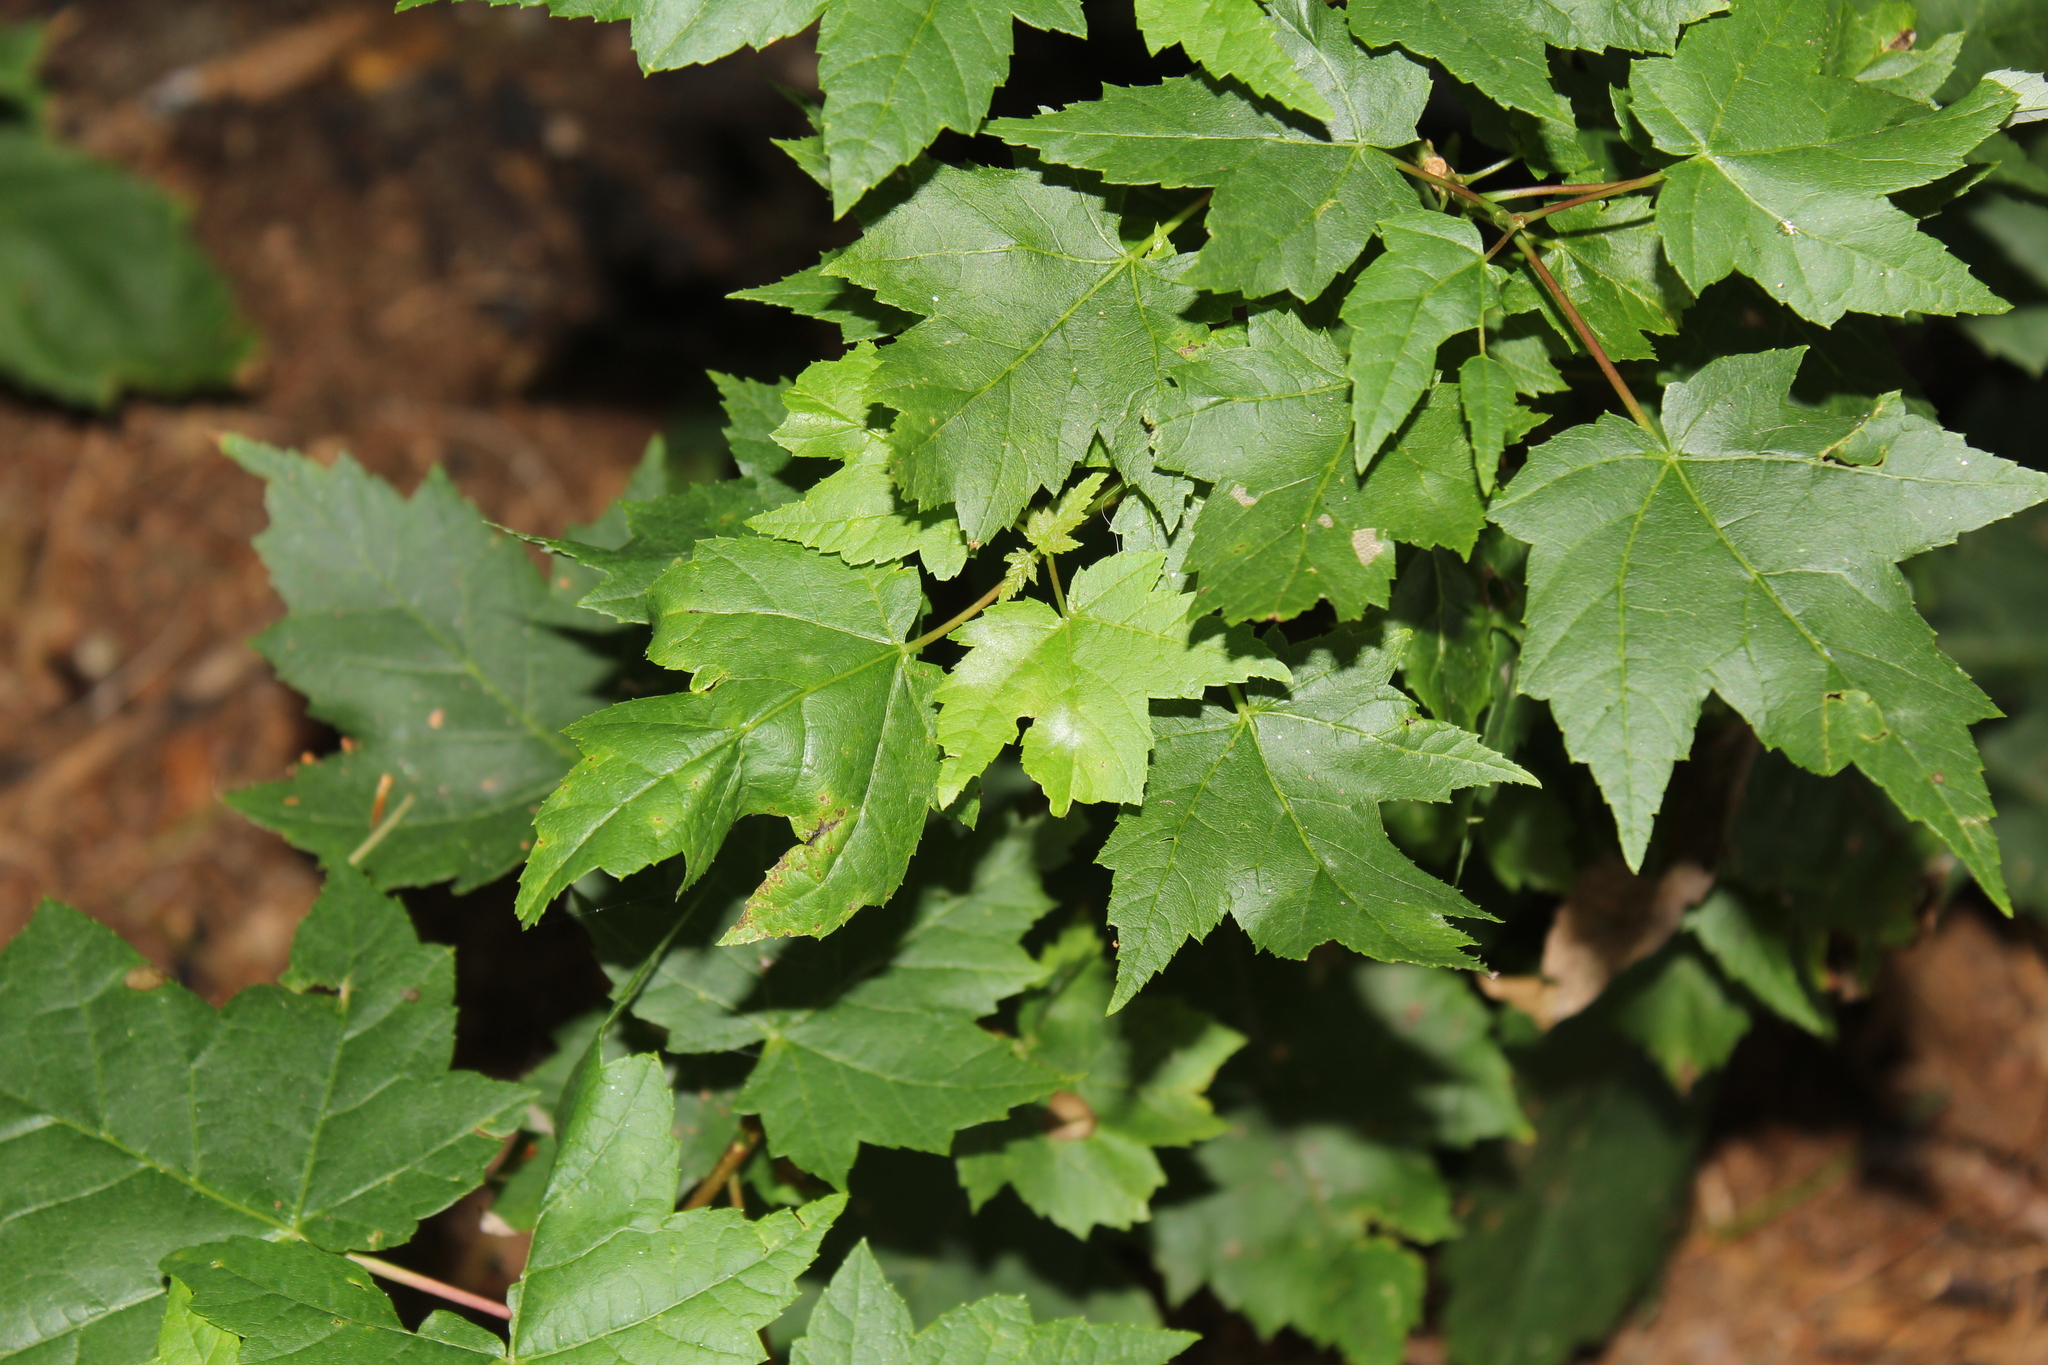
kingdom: Plantae
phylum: Tracheophyta
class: Magnoliopsida
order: Sapindales
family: Sapindaceae
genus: Acer
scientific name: Acer rubrum
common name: Red maple
